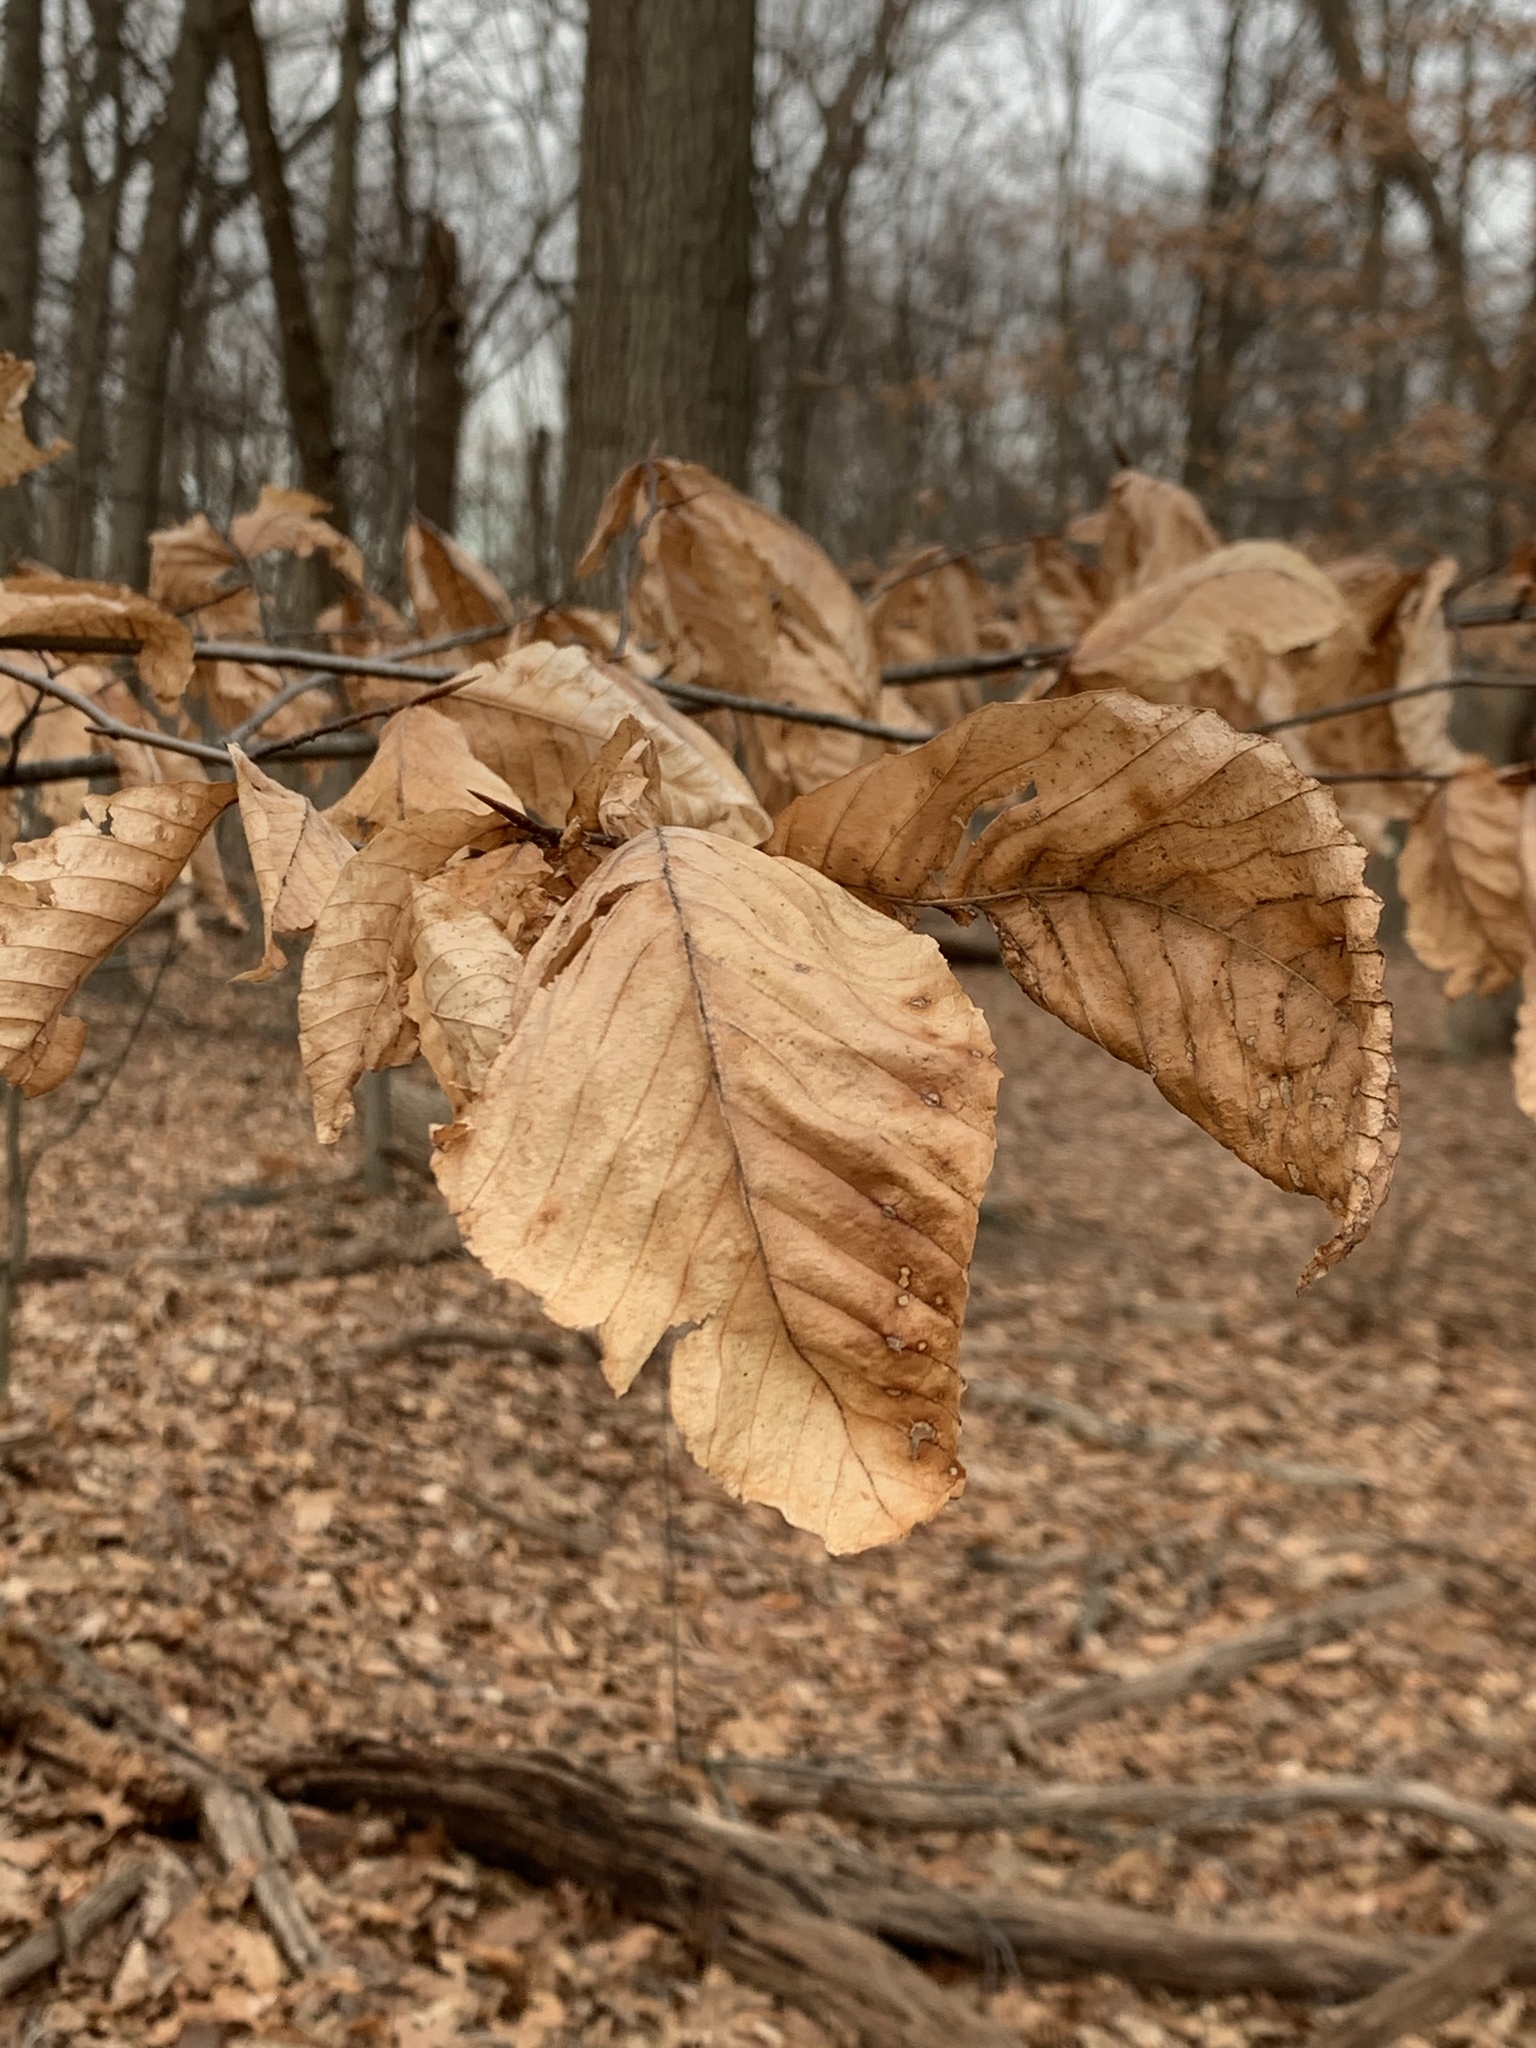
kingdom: Plantae
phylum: Tracheophyta
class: Magnoliopsida
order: Fagales
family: Fagaceae
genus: Fagus
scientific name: Fagus grandifolia
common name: American beech
